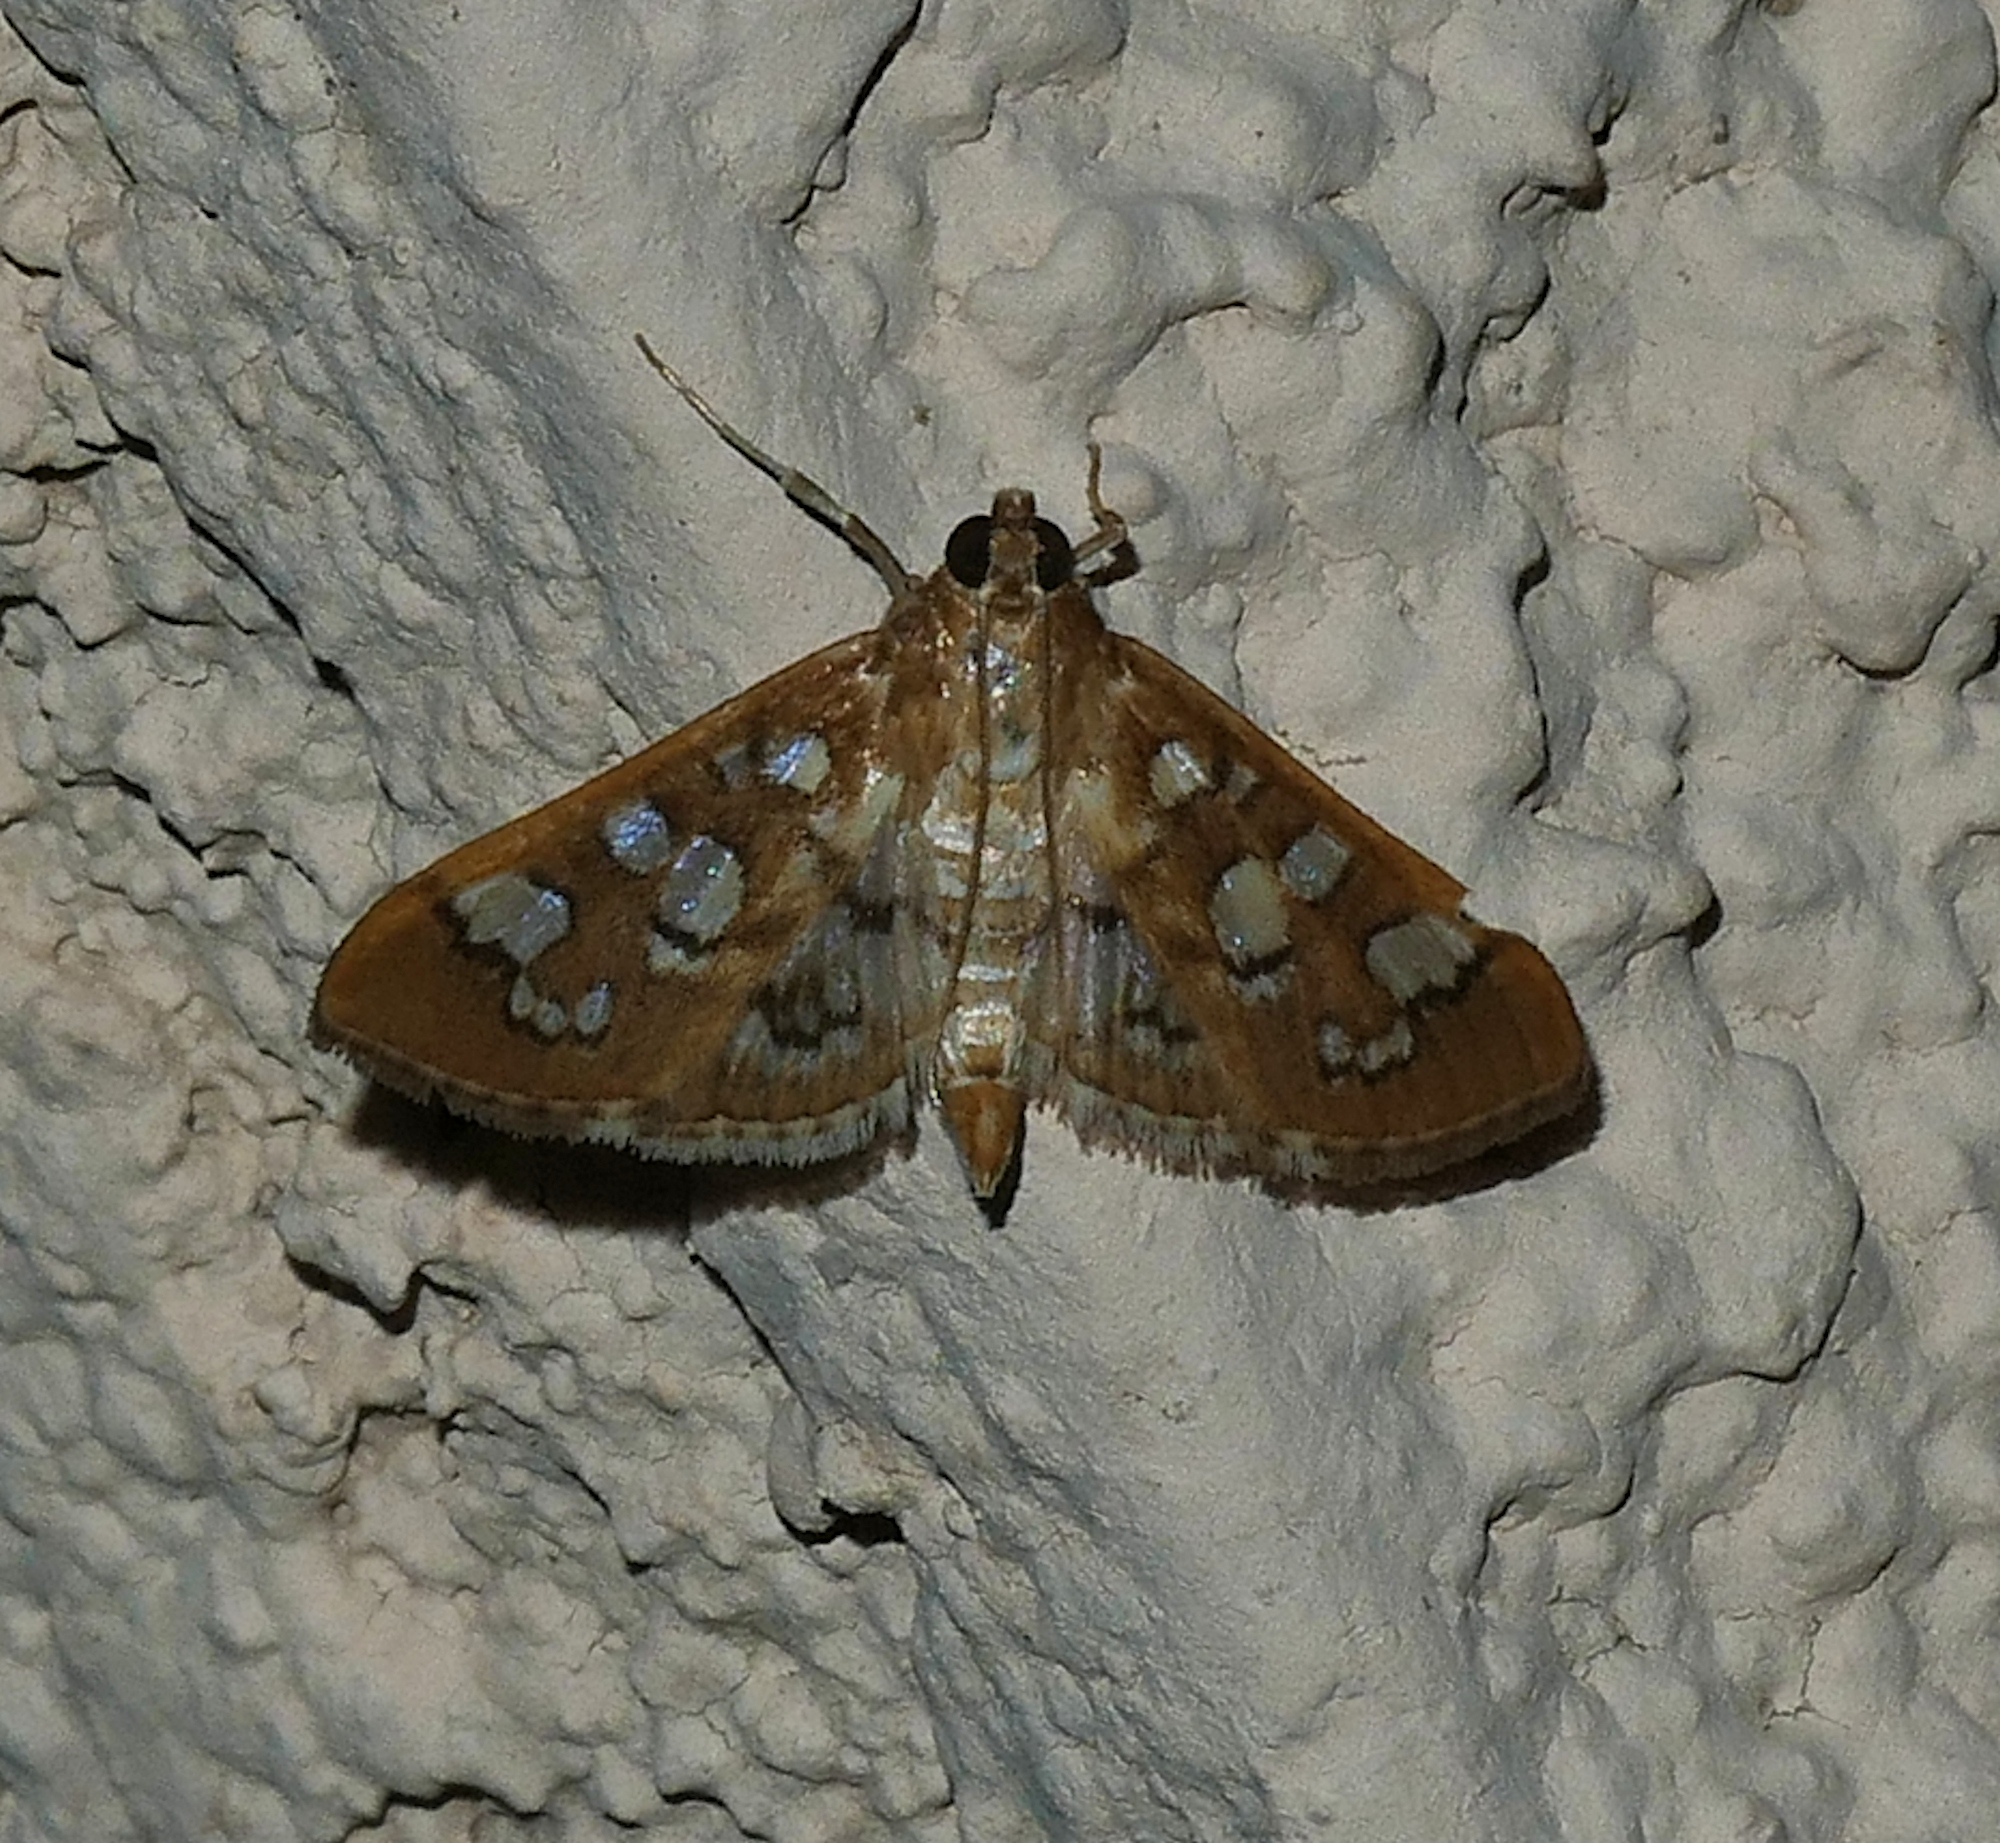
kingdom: Animalia
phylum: Arthropoda
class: Insecta
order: Lepidoptera
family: Crambidae
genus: Samea
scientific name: Samea baccatalis
